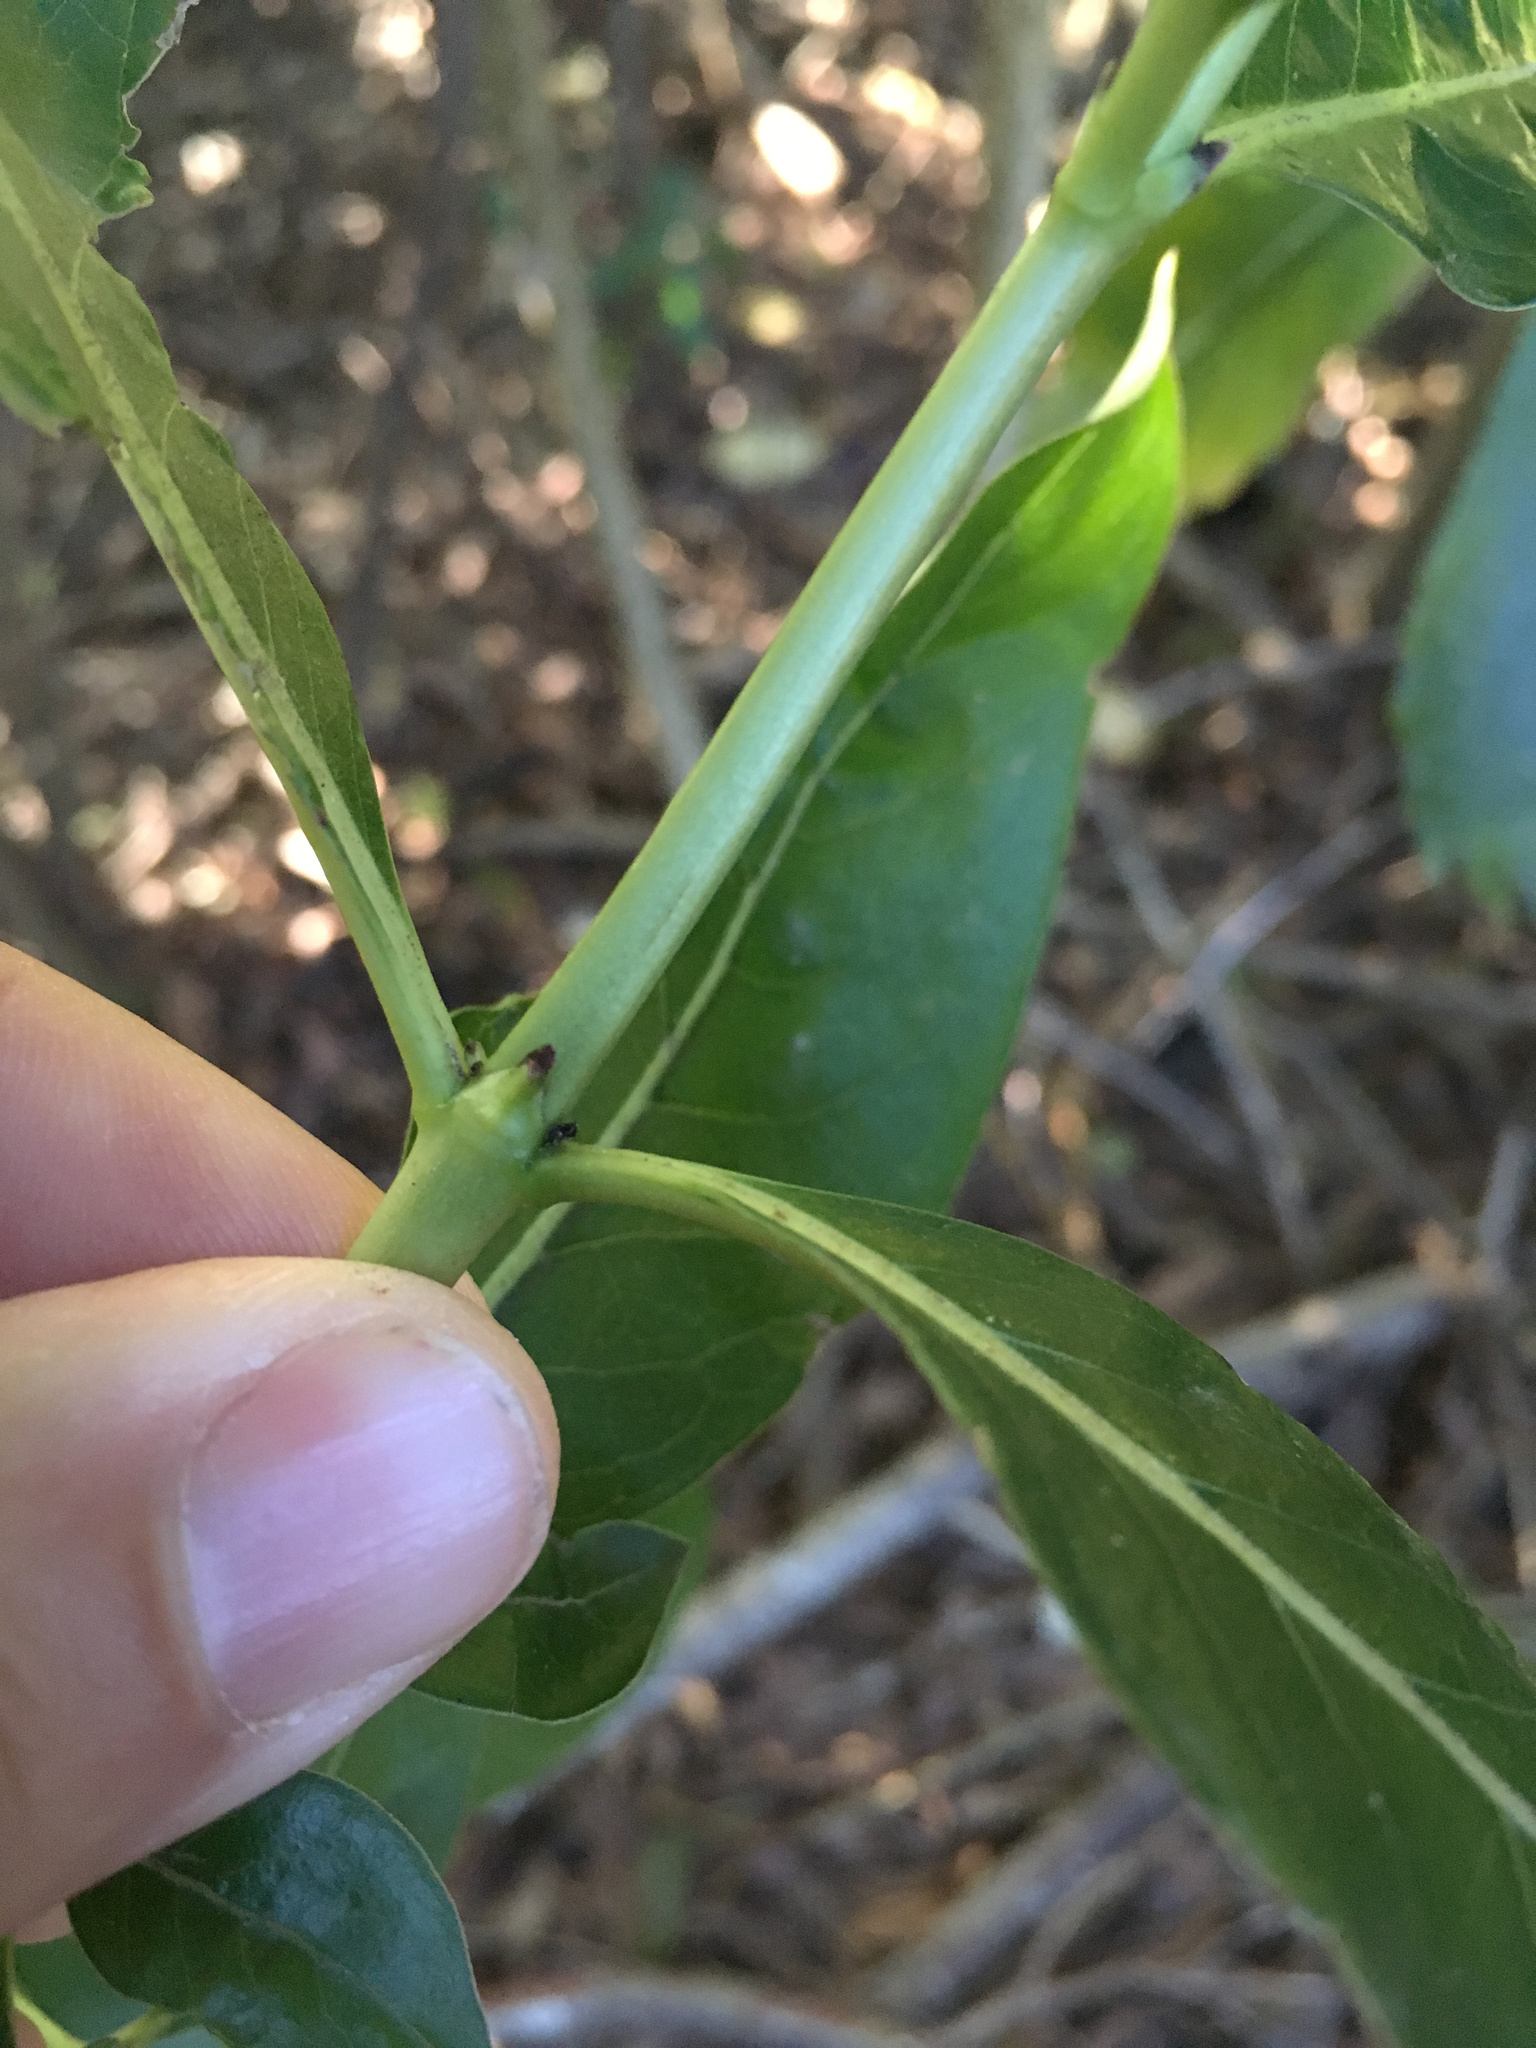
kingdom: Plantae
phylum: Tracheophyta
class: Magnoliopsida
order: Gentianales
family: Rubiaceae
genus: Coprosma
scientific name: Coprosma robusta
